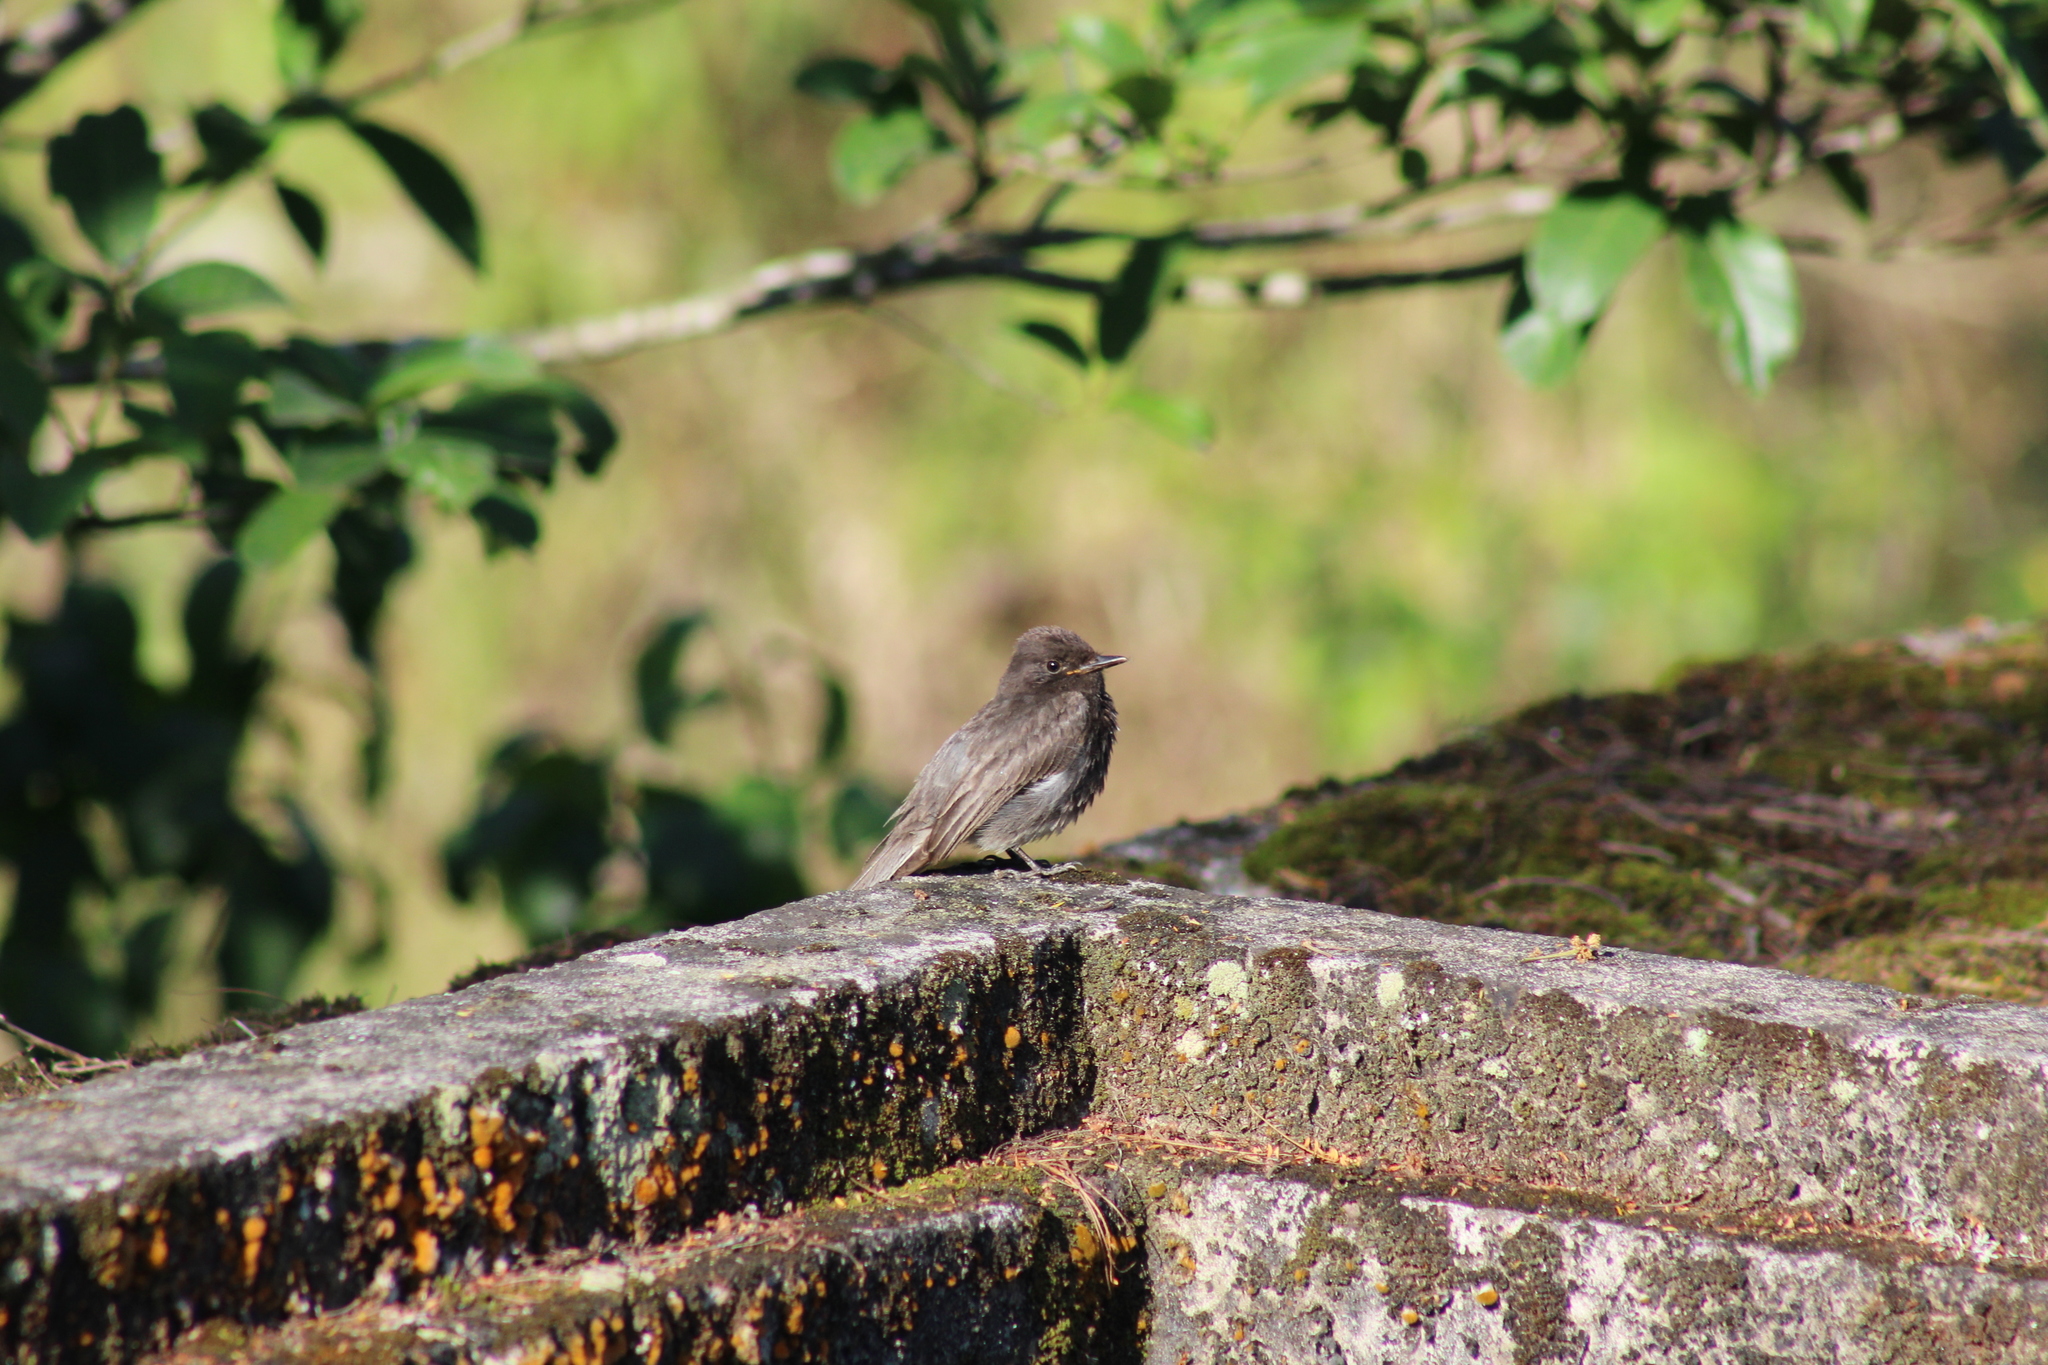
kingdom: Animalia
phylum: Chordata
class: Aves
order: Passeriformes
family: Tyrannidae
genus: Sayornis
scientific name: Sayornis nigricans
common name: Black phoebe
